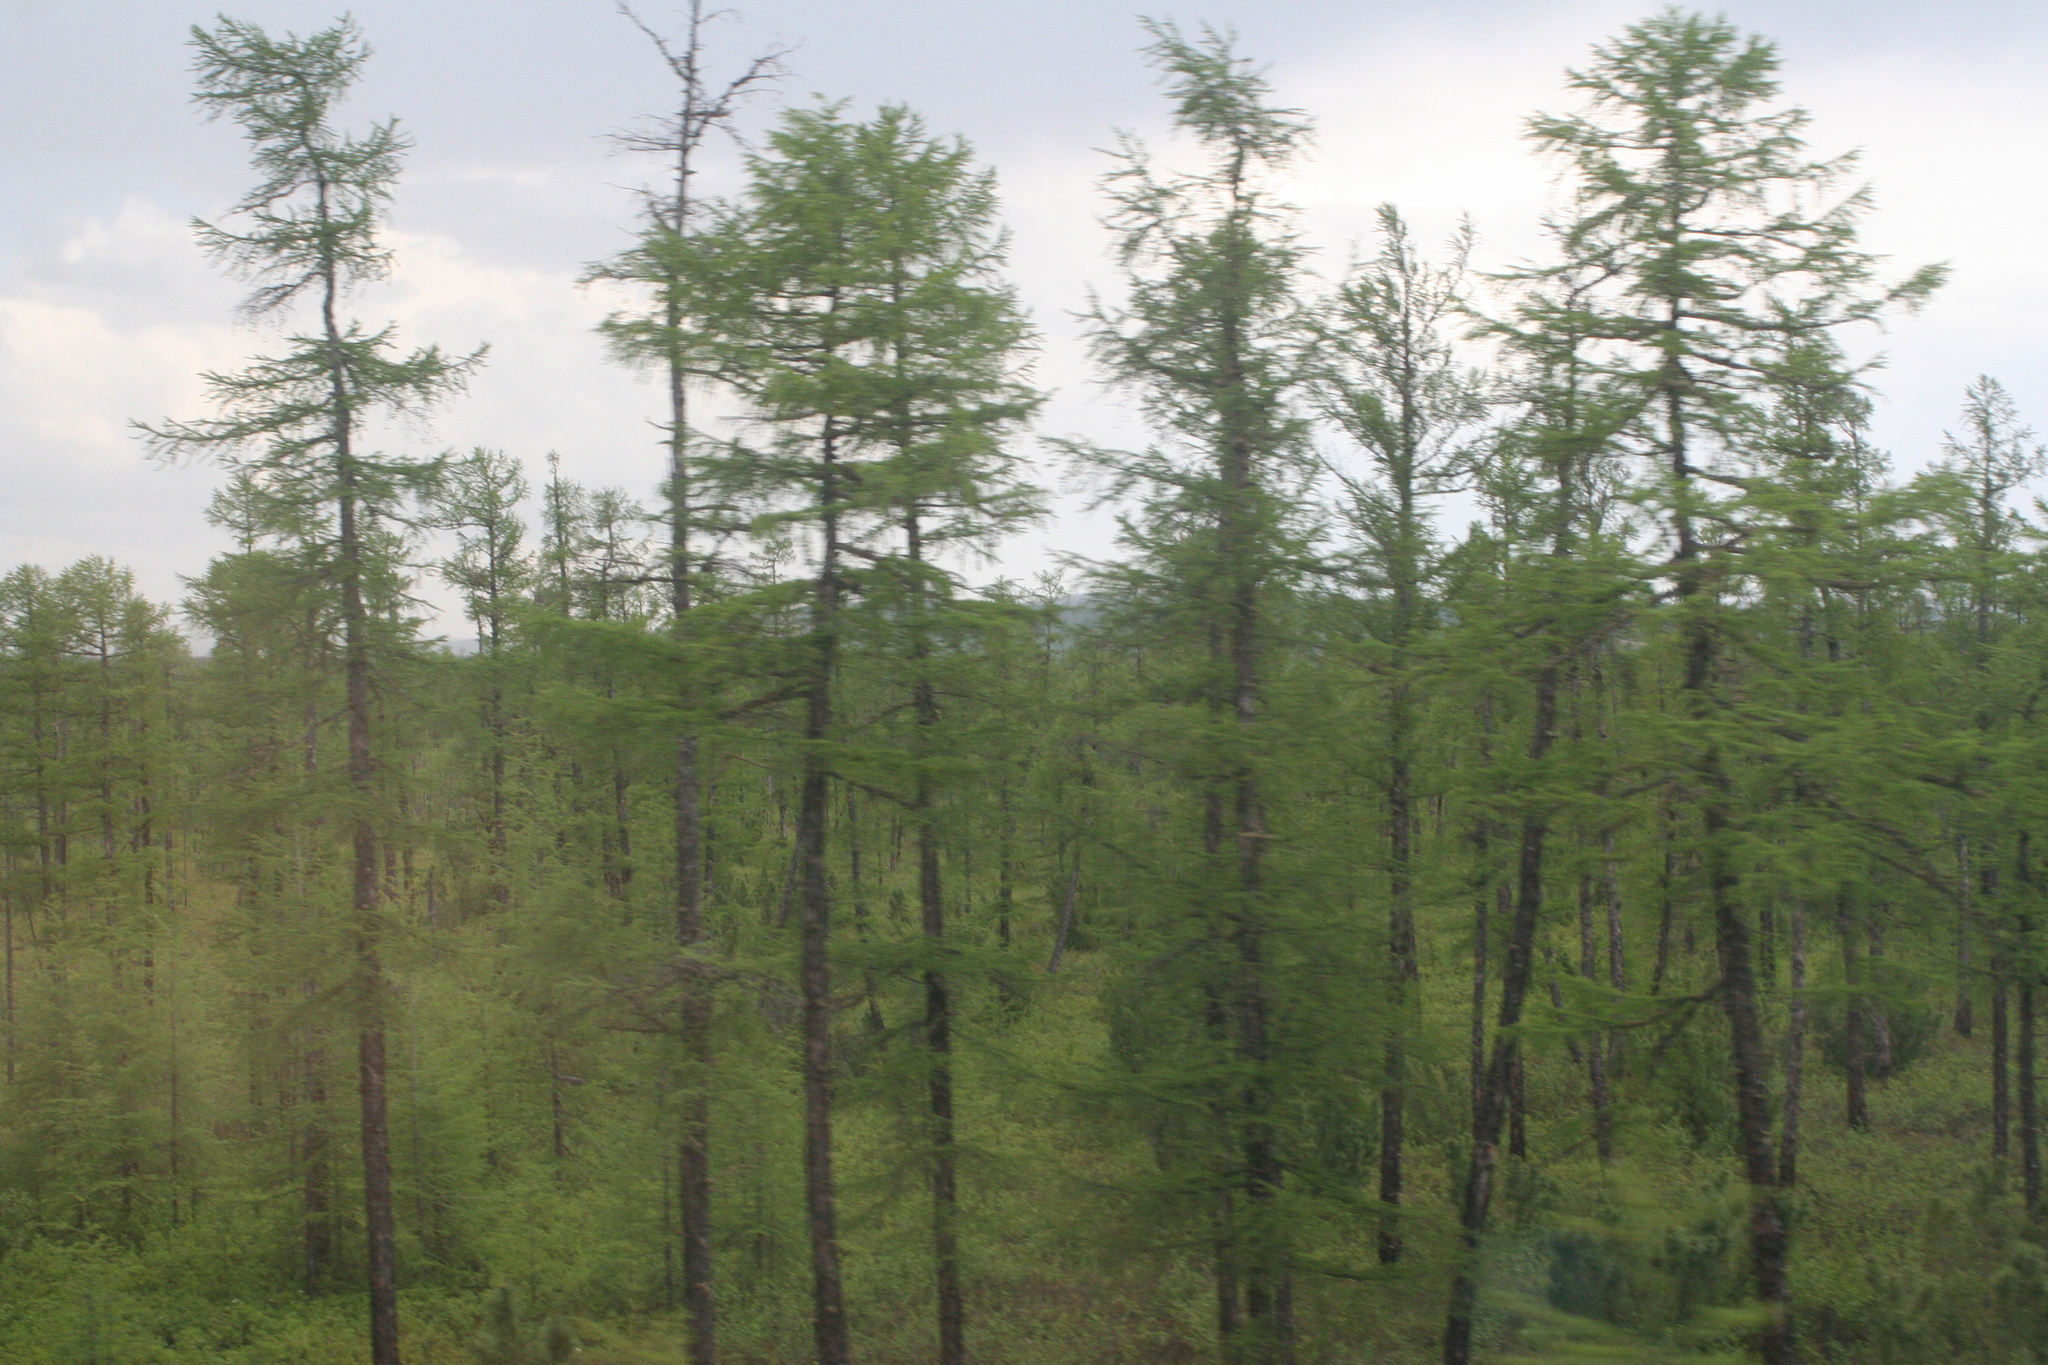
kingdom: Plantae
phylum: Tracheophyta
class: Pinopsida
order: Pinales
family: Pinaceae
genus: Larix
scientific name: Larix gmelinii
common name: Dahurian larch
